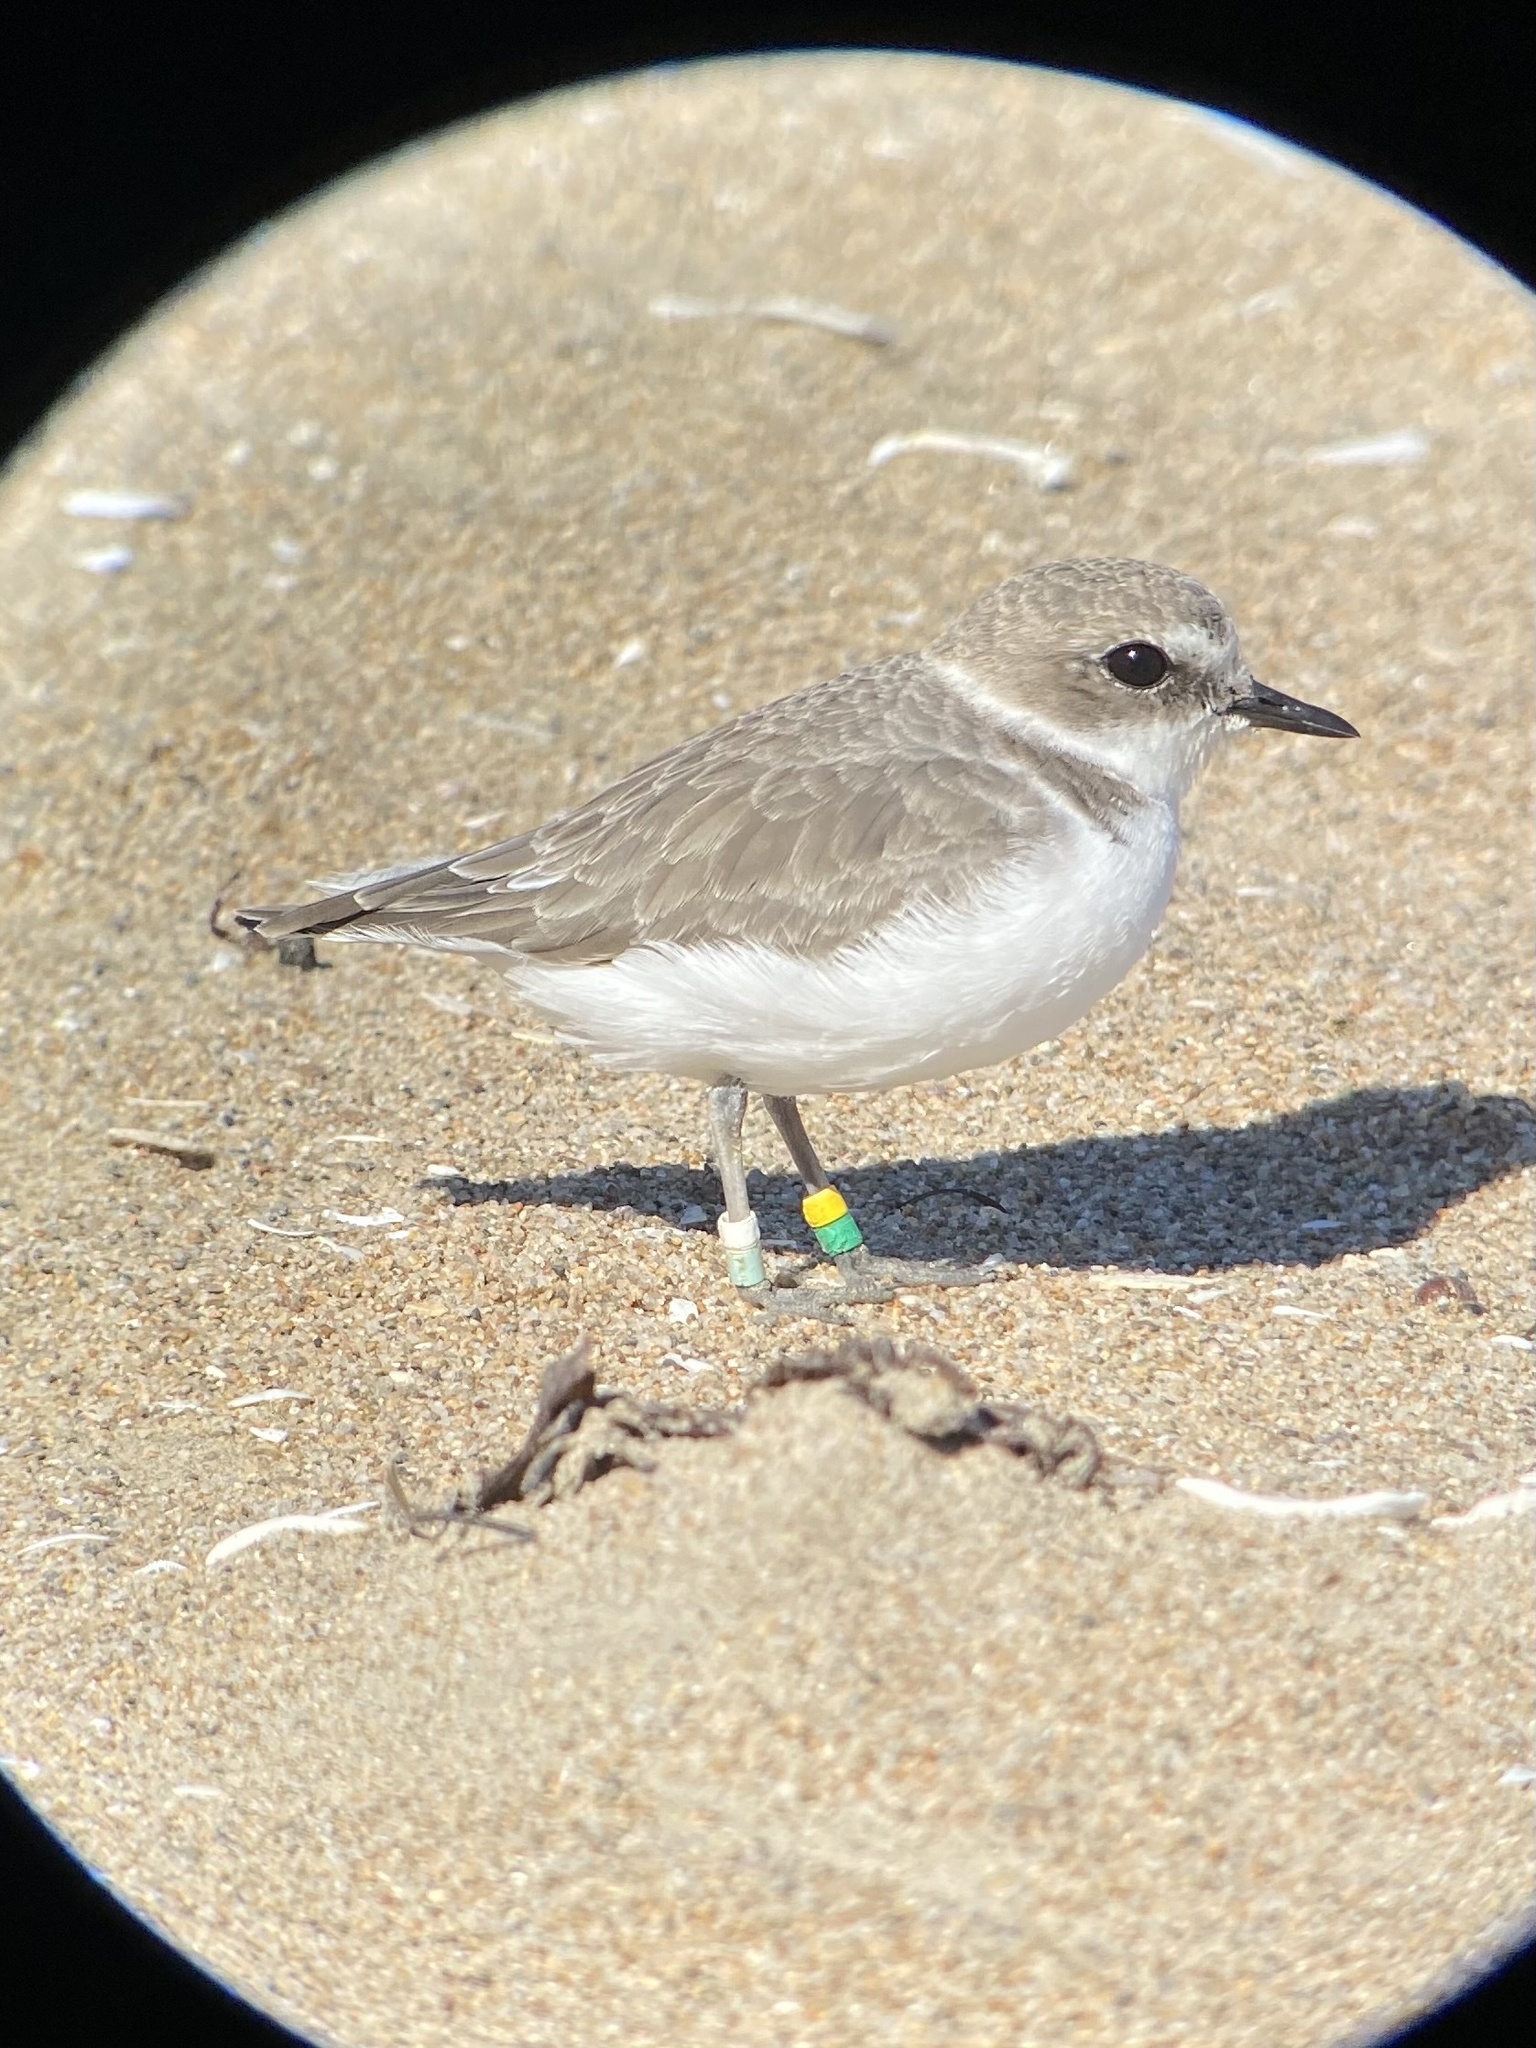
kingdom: Animalia
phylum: Chordata
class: Aves
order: Charadriiformes
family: Charadriidae
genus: Anarhynchus
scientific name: Anarhynchus
